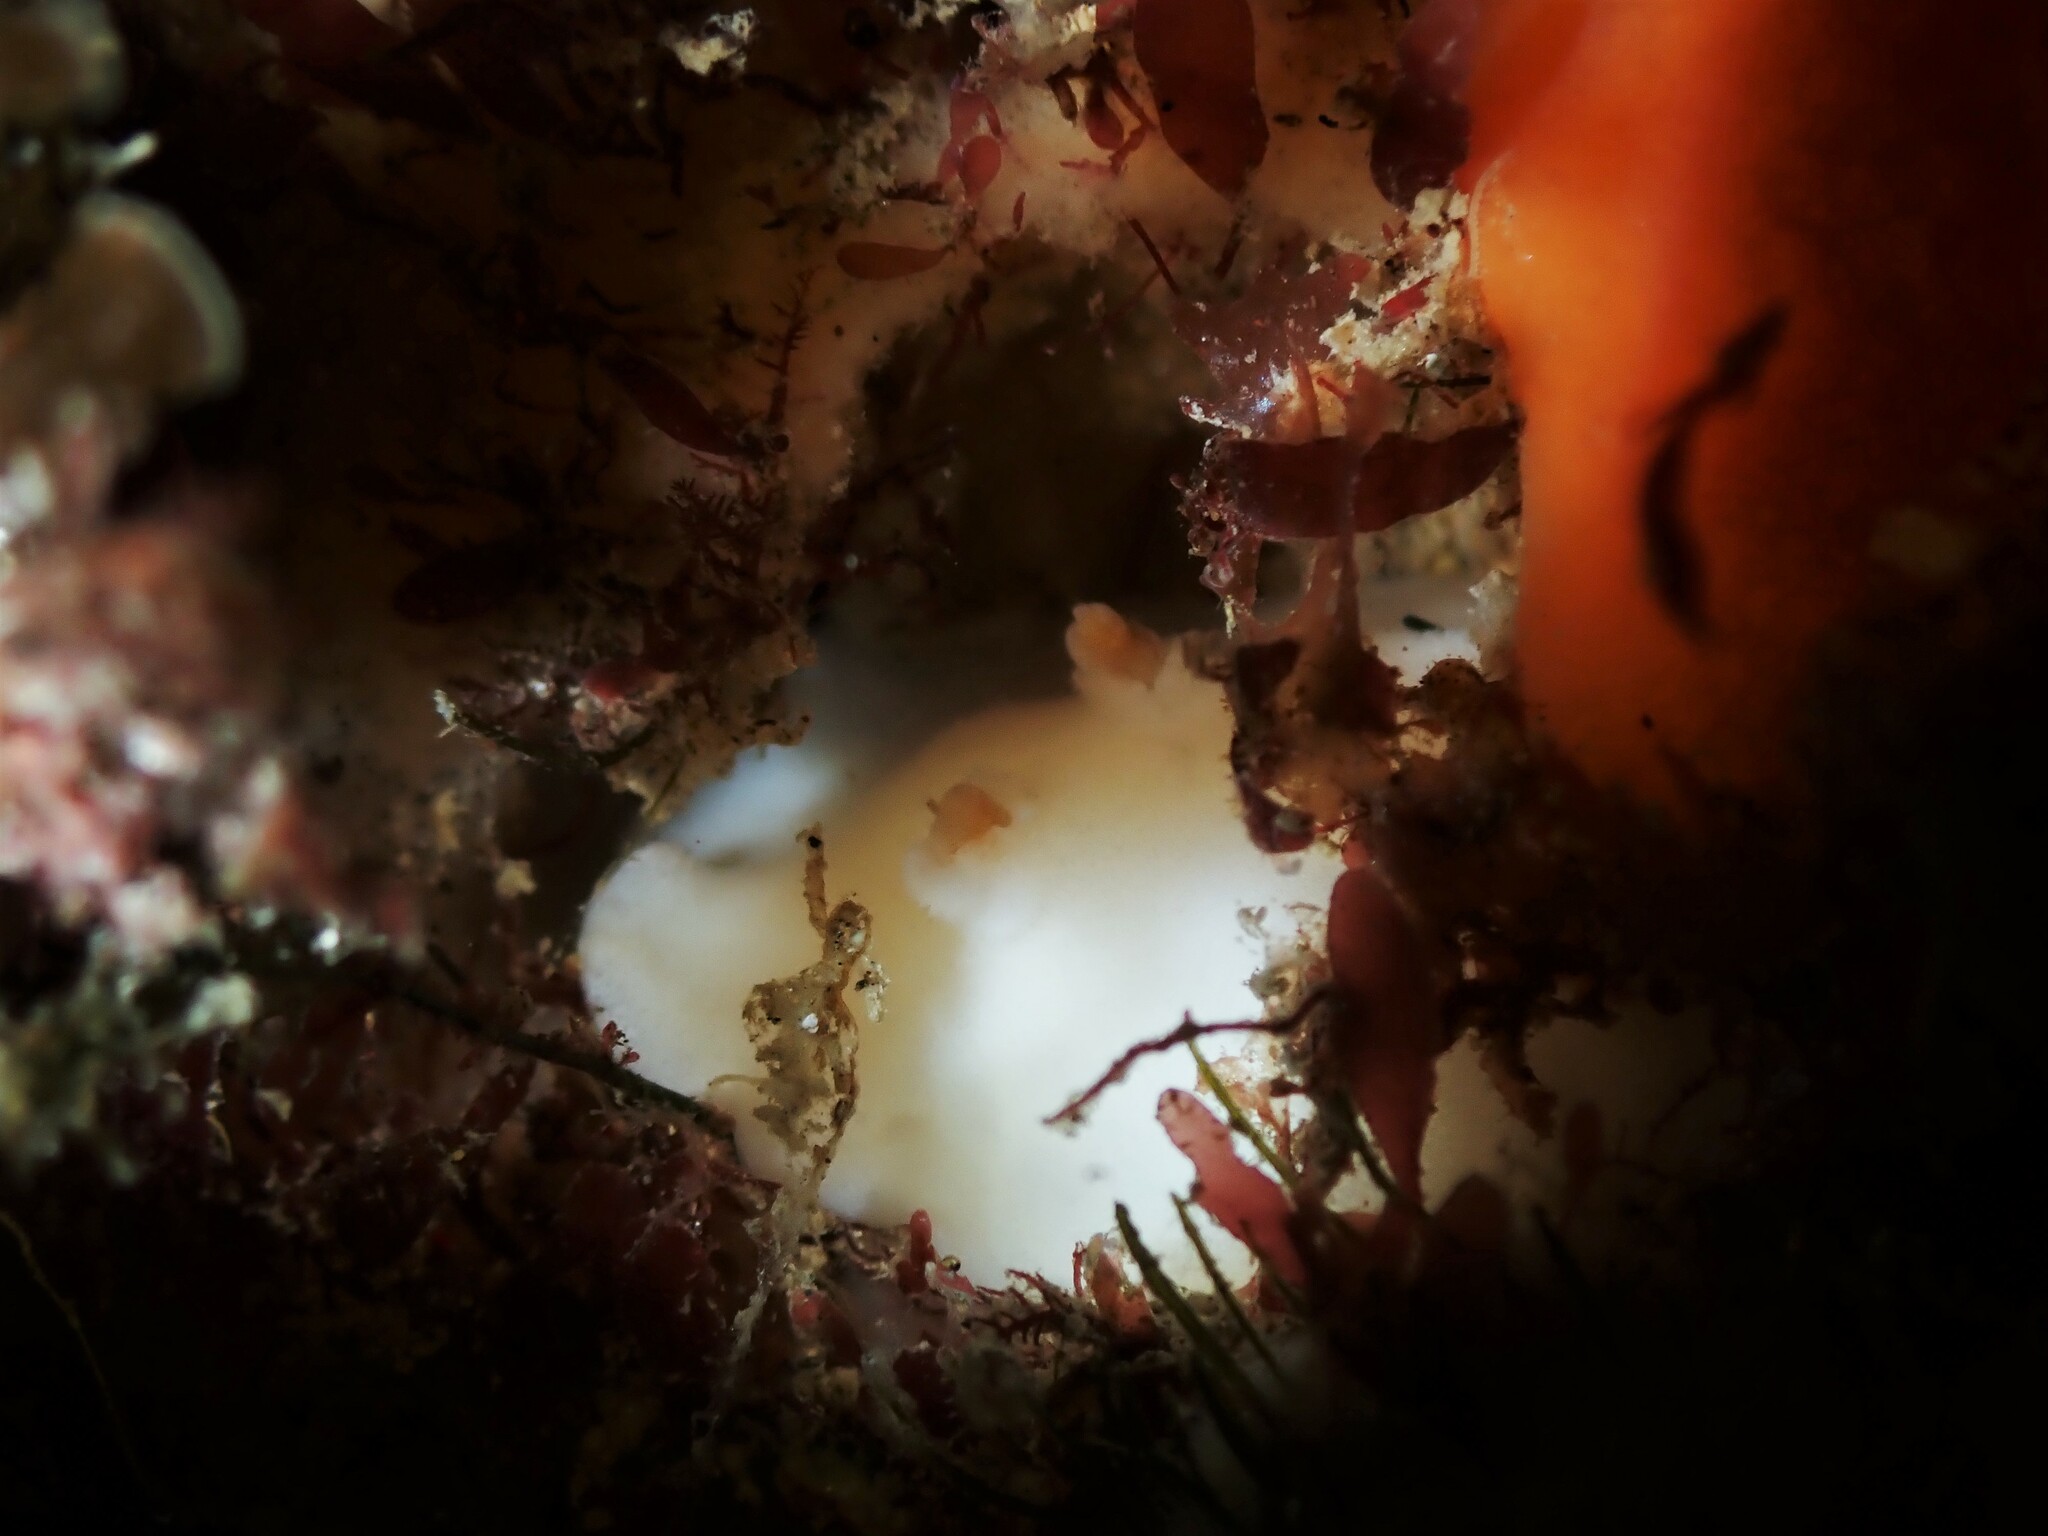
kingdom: Animalia
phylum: Mollusca
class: Gastropoda
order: Nudibranchia
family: Discodorididae
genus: Atagema
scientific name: Atagema carinata
